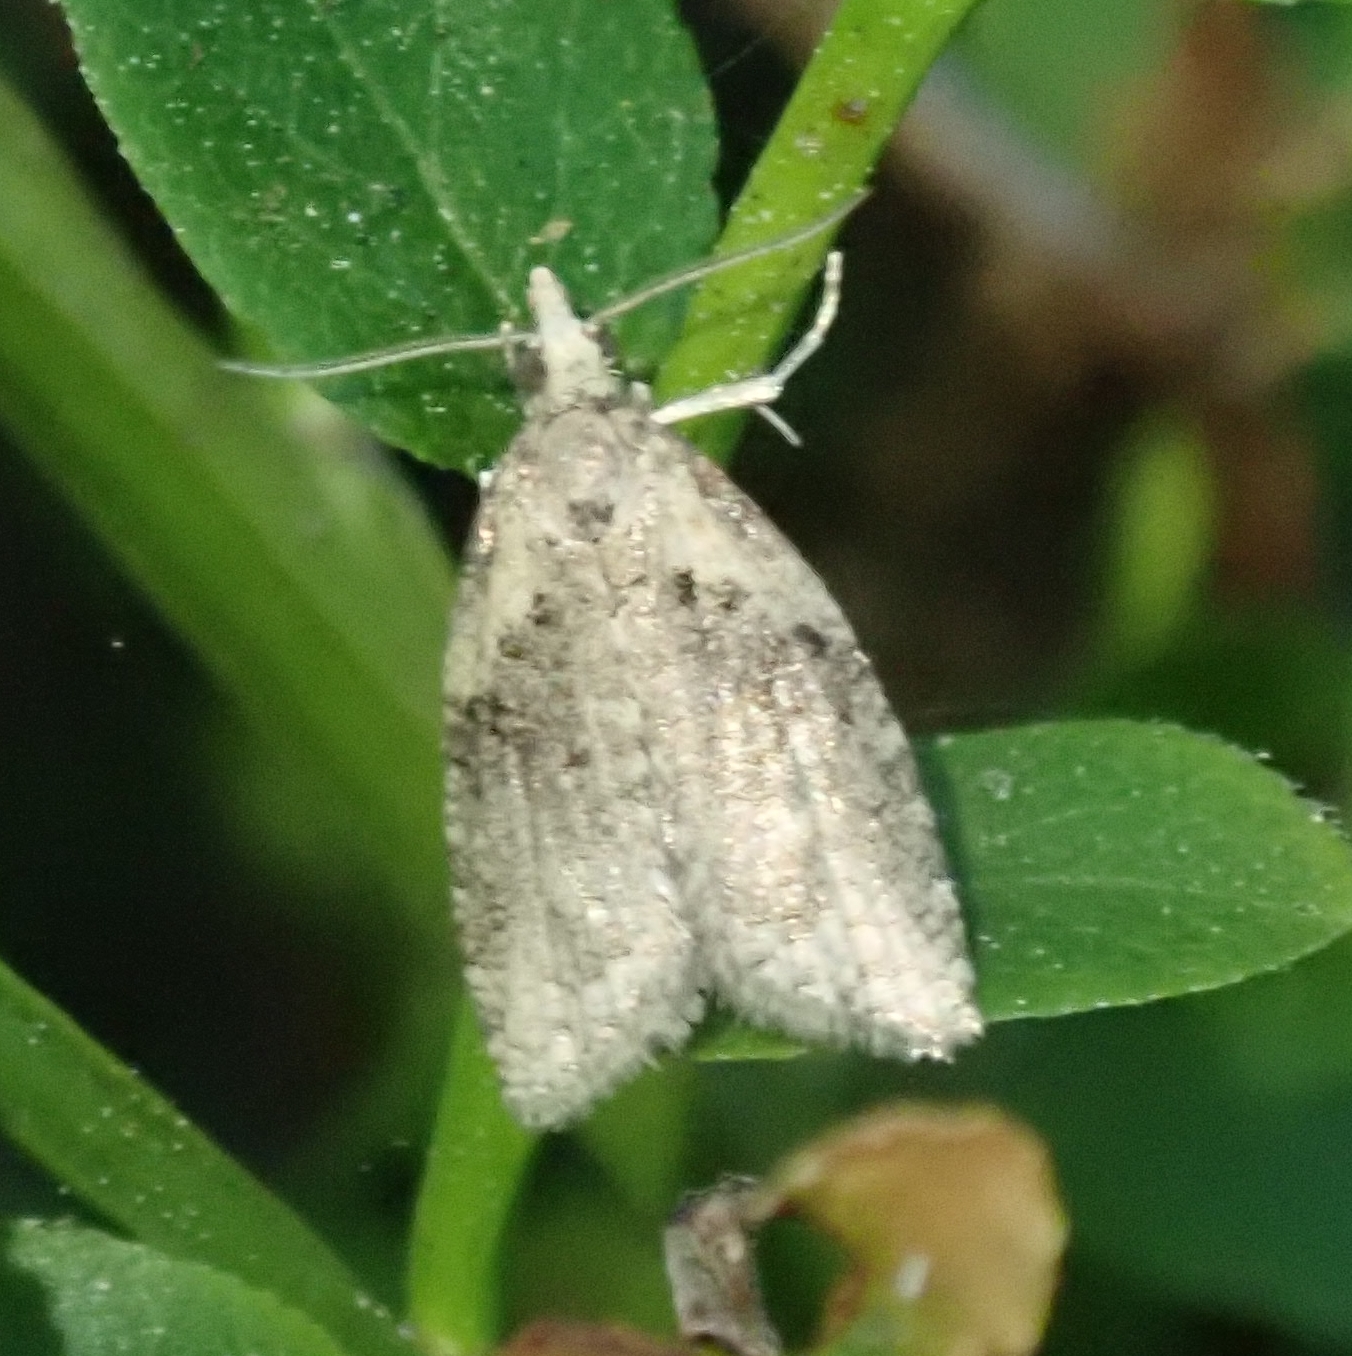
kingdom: Animalia
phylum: Arthropoda
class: Insecta
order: Lepidoptera
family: Tortricidae
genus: Capua
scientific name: Capua vulgana
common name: Common twist
